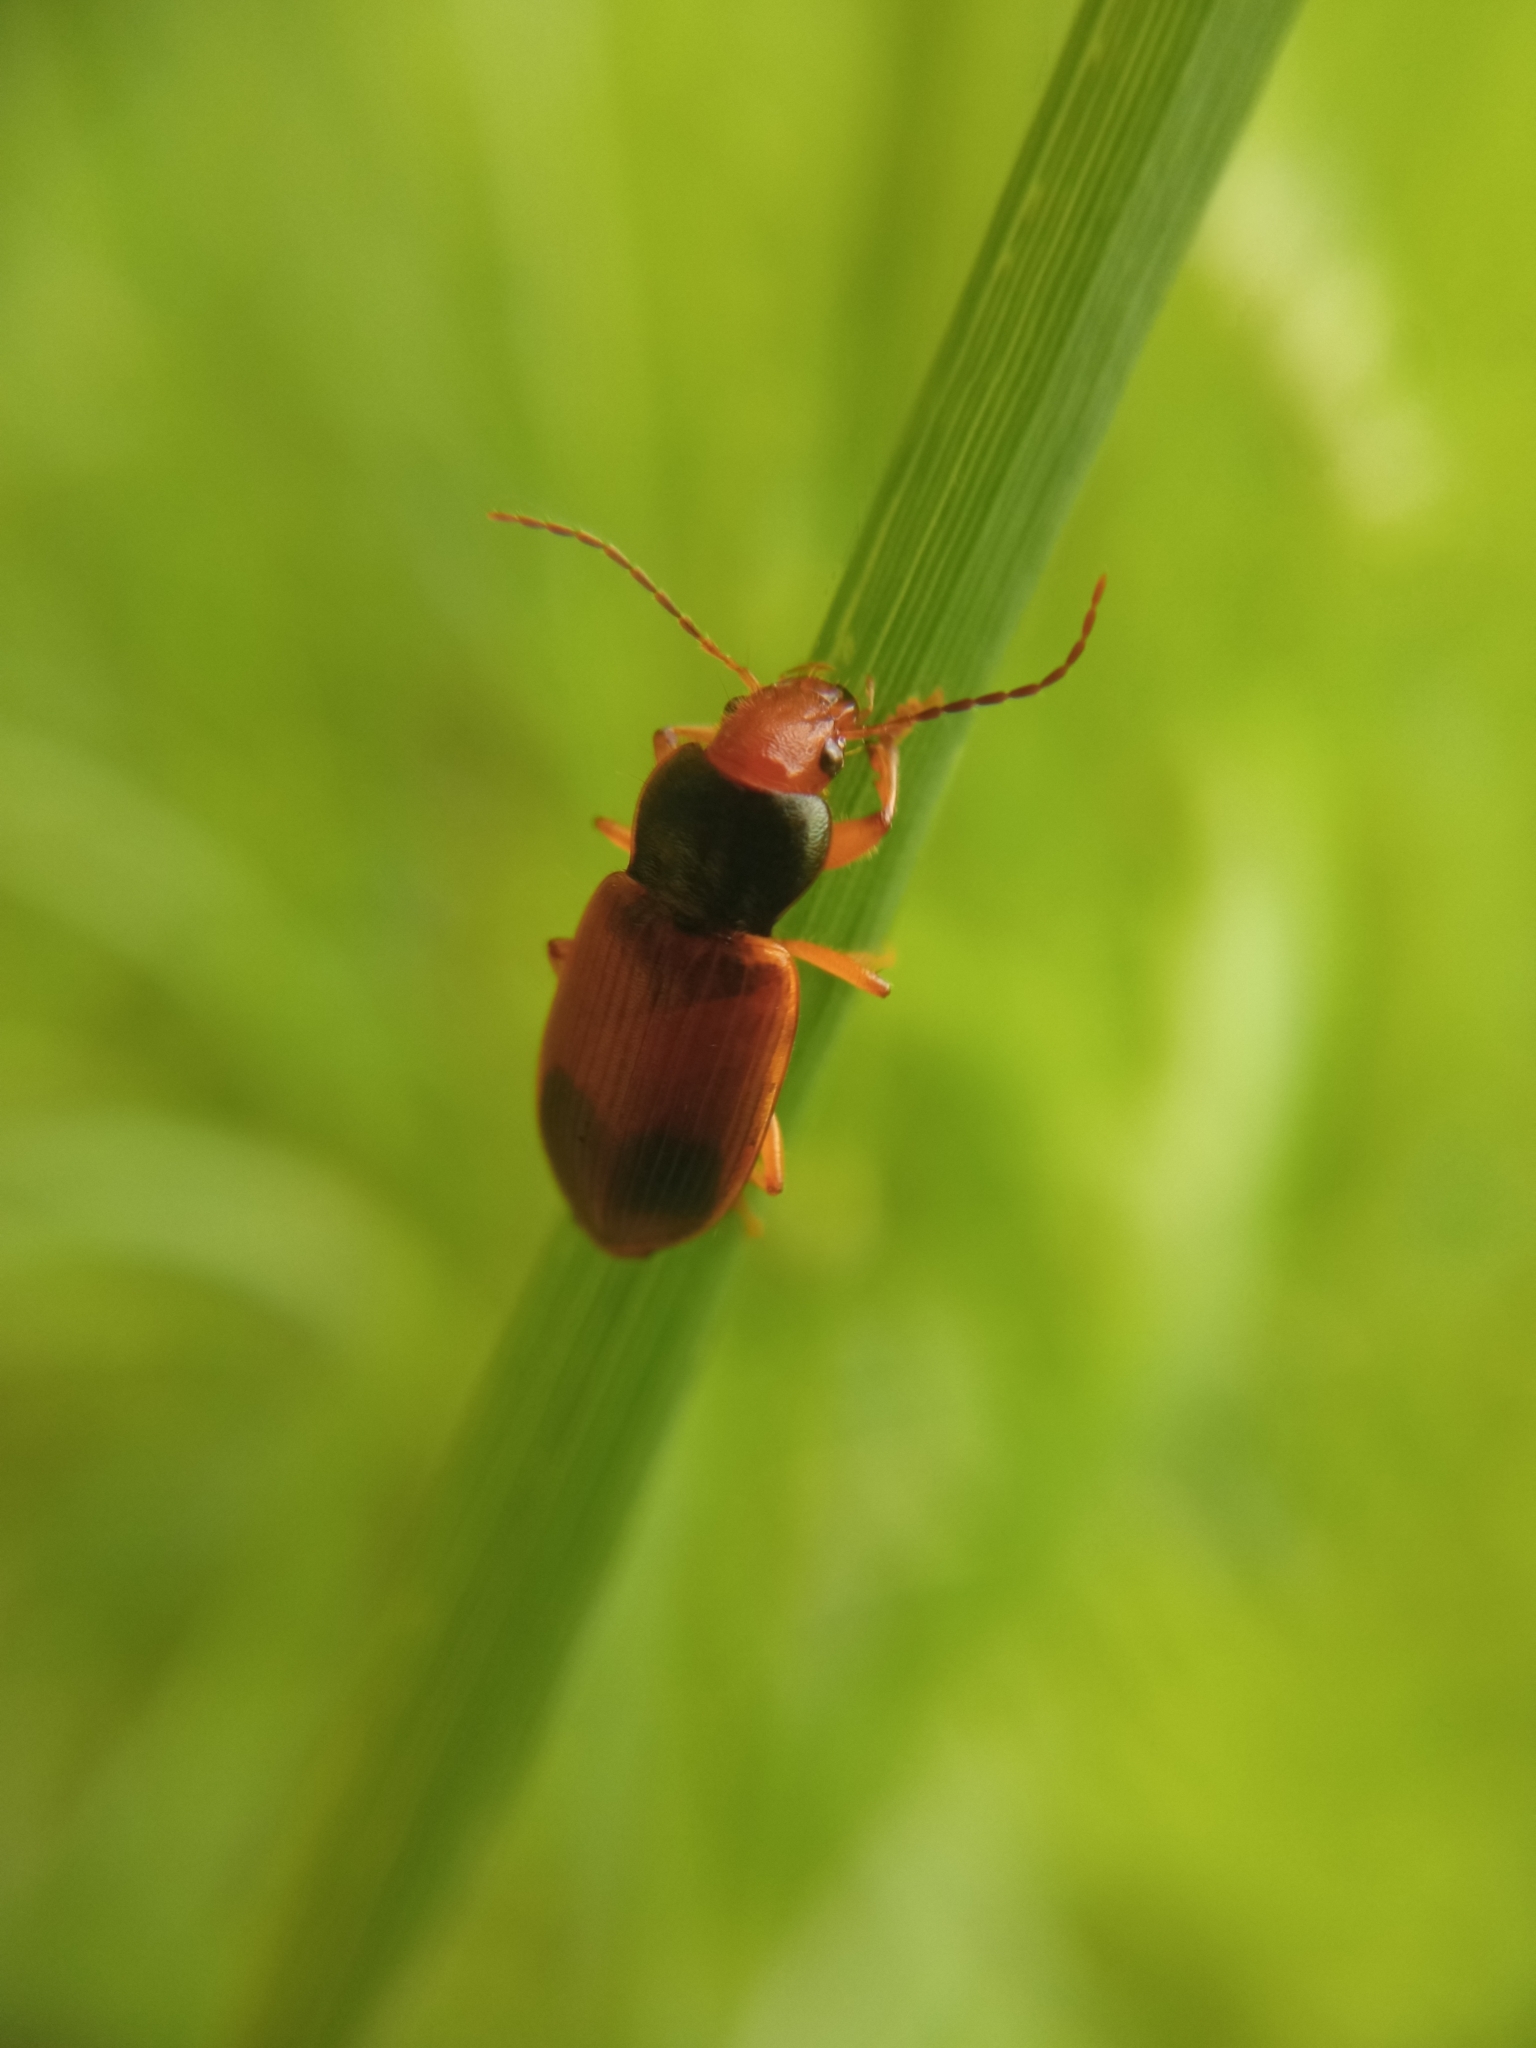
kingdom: Animalia
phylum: Arthropoda
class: Insecta
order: Coleoptera
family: Carabidae
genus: Diachromus
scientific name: Diachromus germanus
